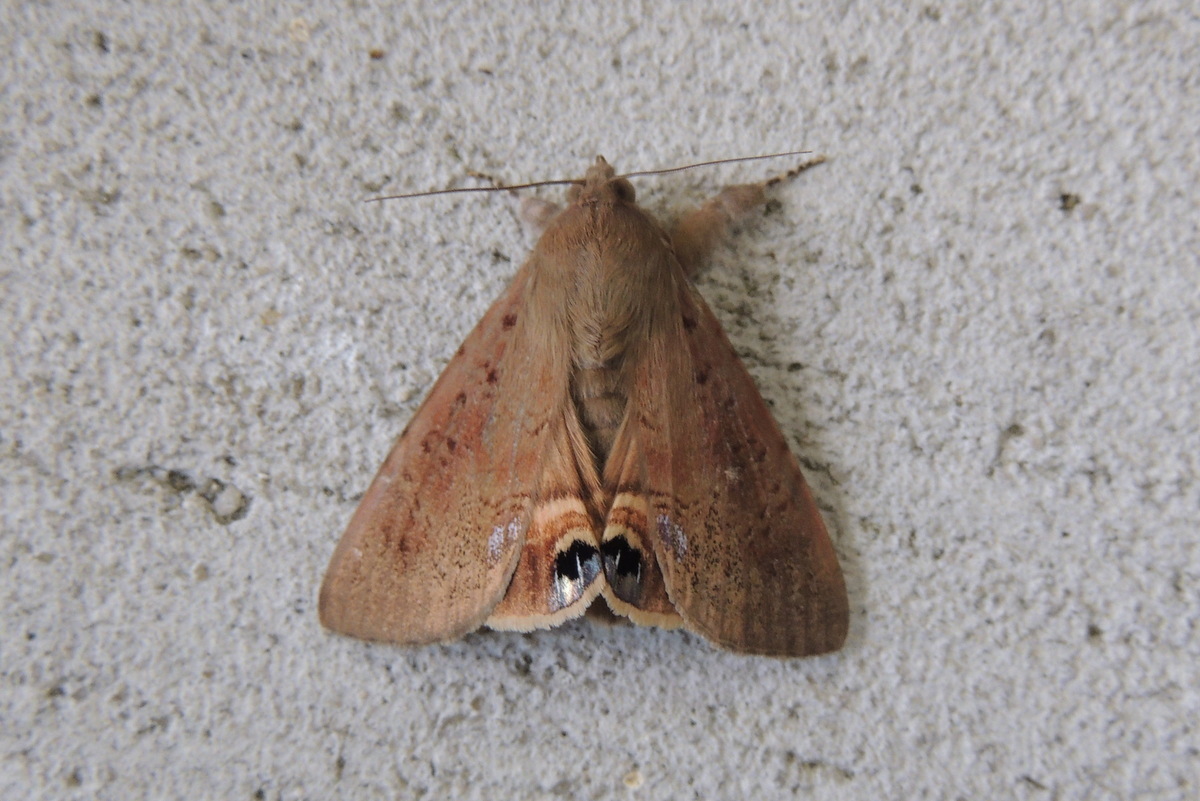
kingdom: Animalia
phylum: Arthropoda
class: Insecta
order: Lepidoptera
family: Erebidae
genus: Litoprosopus
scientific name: Litoprosopus futilis
